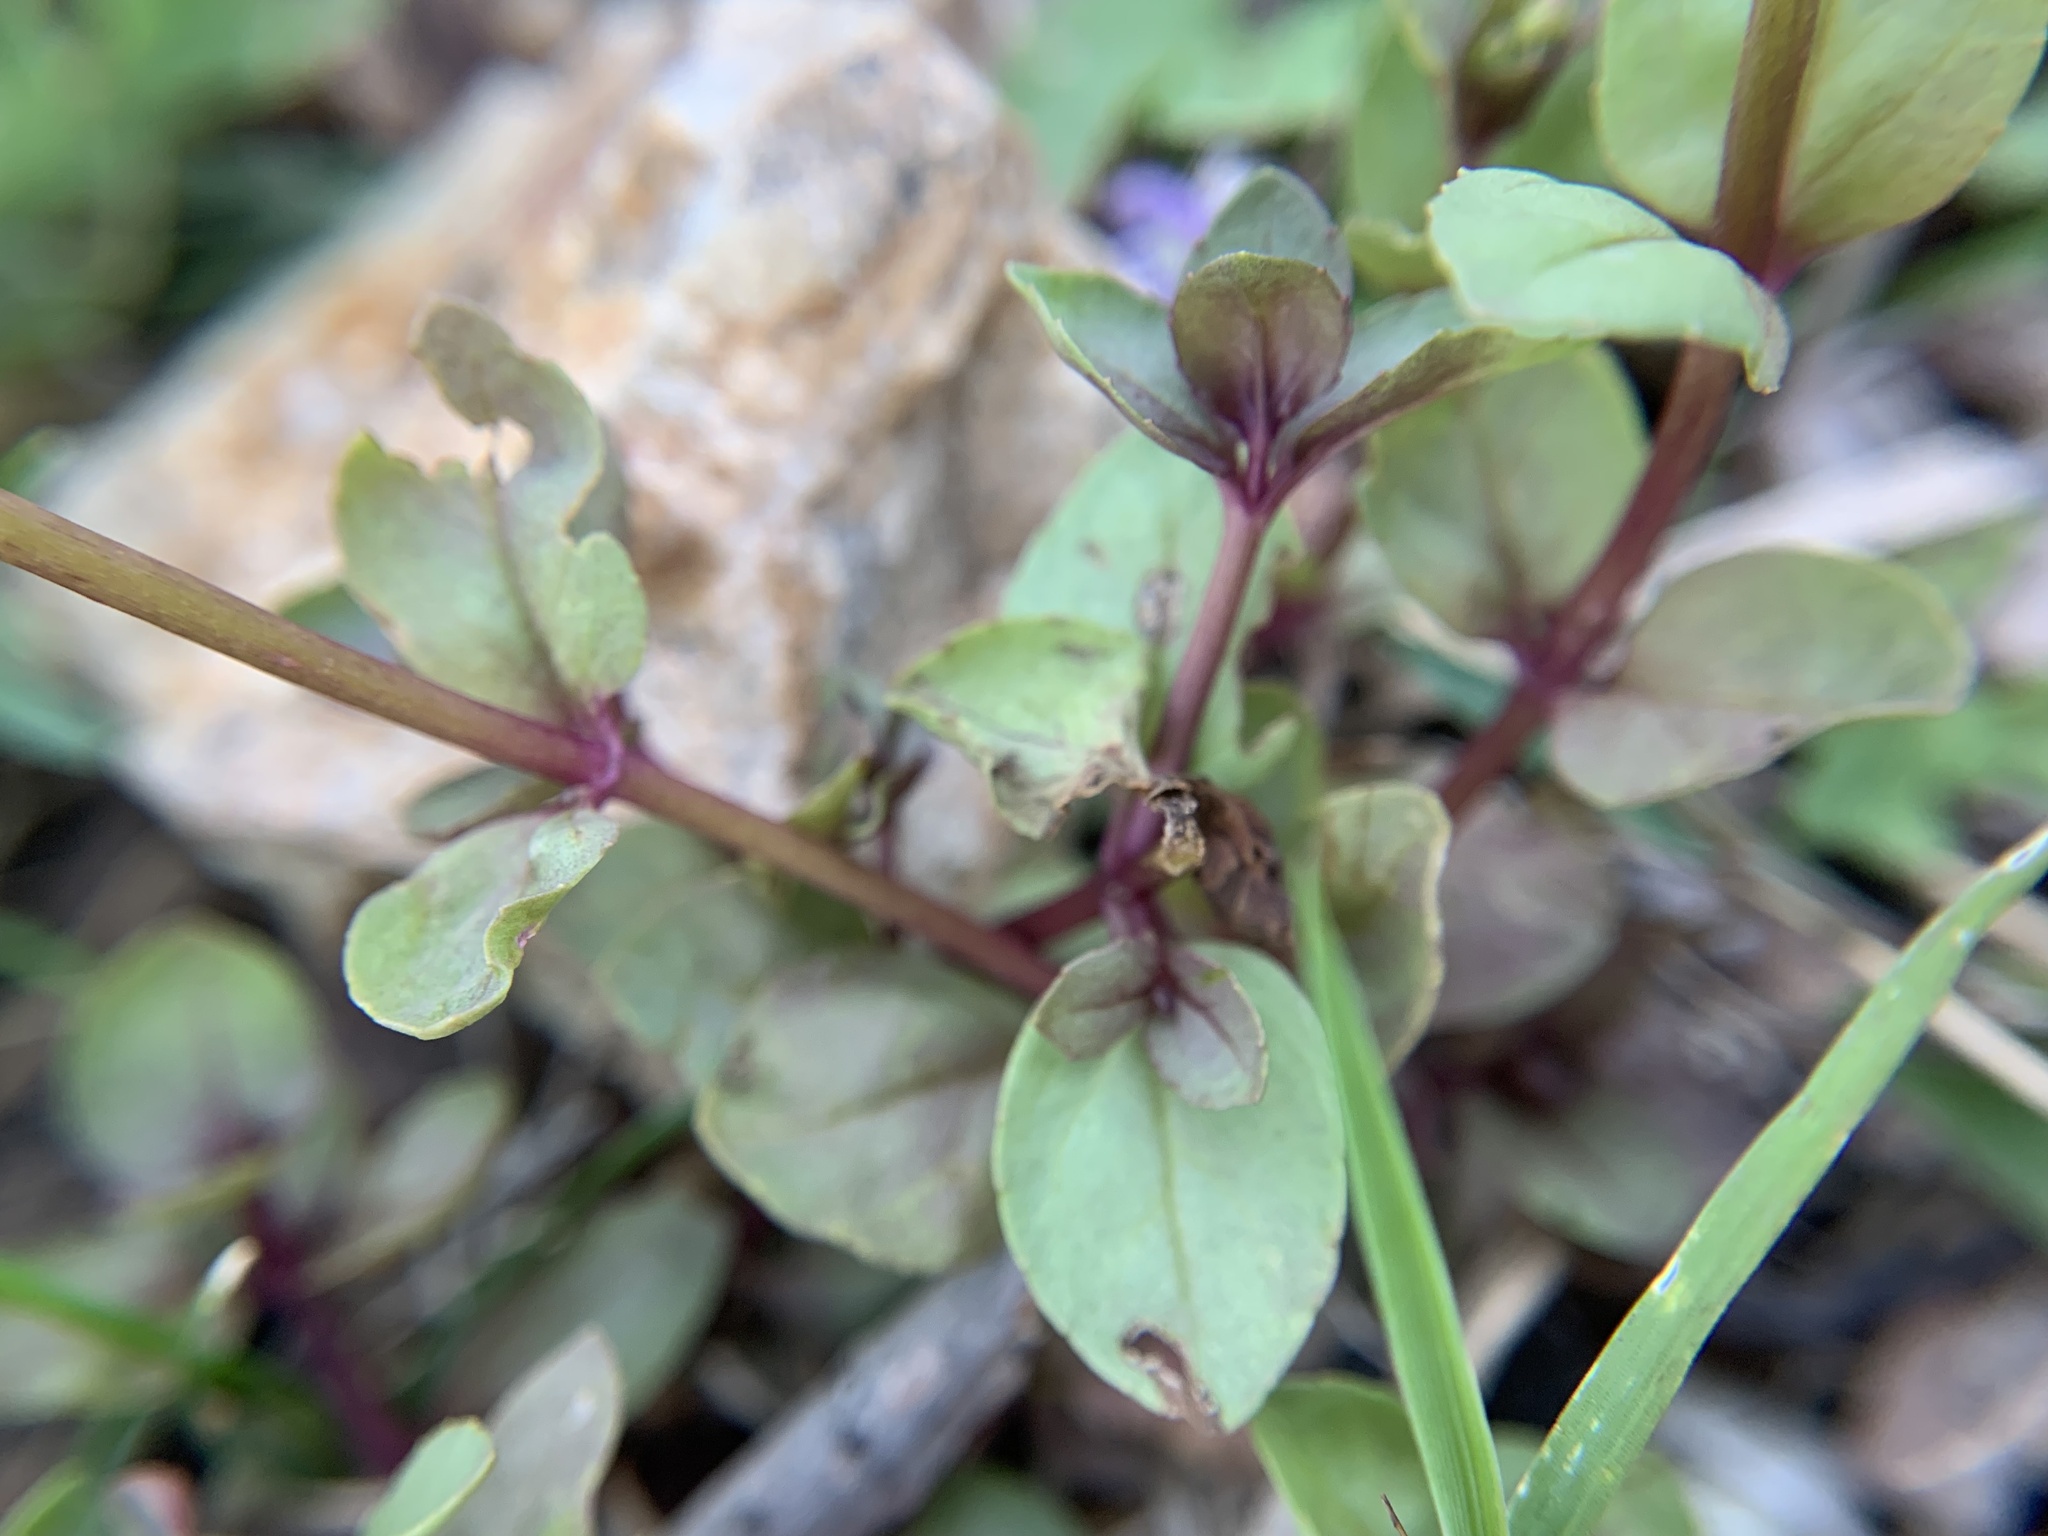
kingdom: Plantae
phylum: Tracheophyta
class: Magnoliopsida
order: Lamiales
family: Plantaginaceae
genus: Veronica
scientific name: Veronica anagallis-aquatica
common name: Water speedwell
